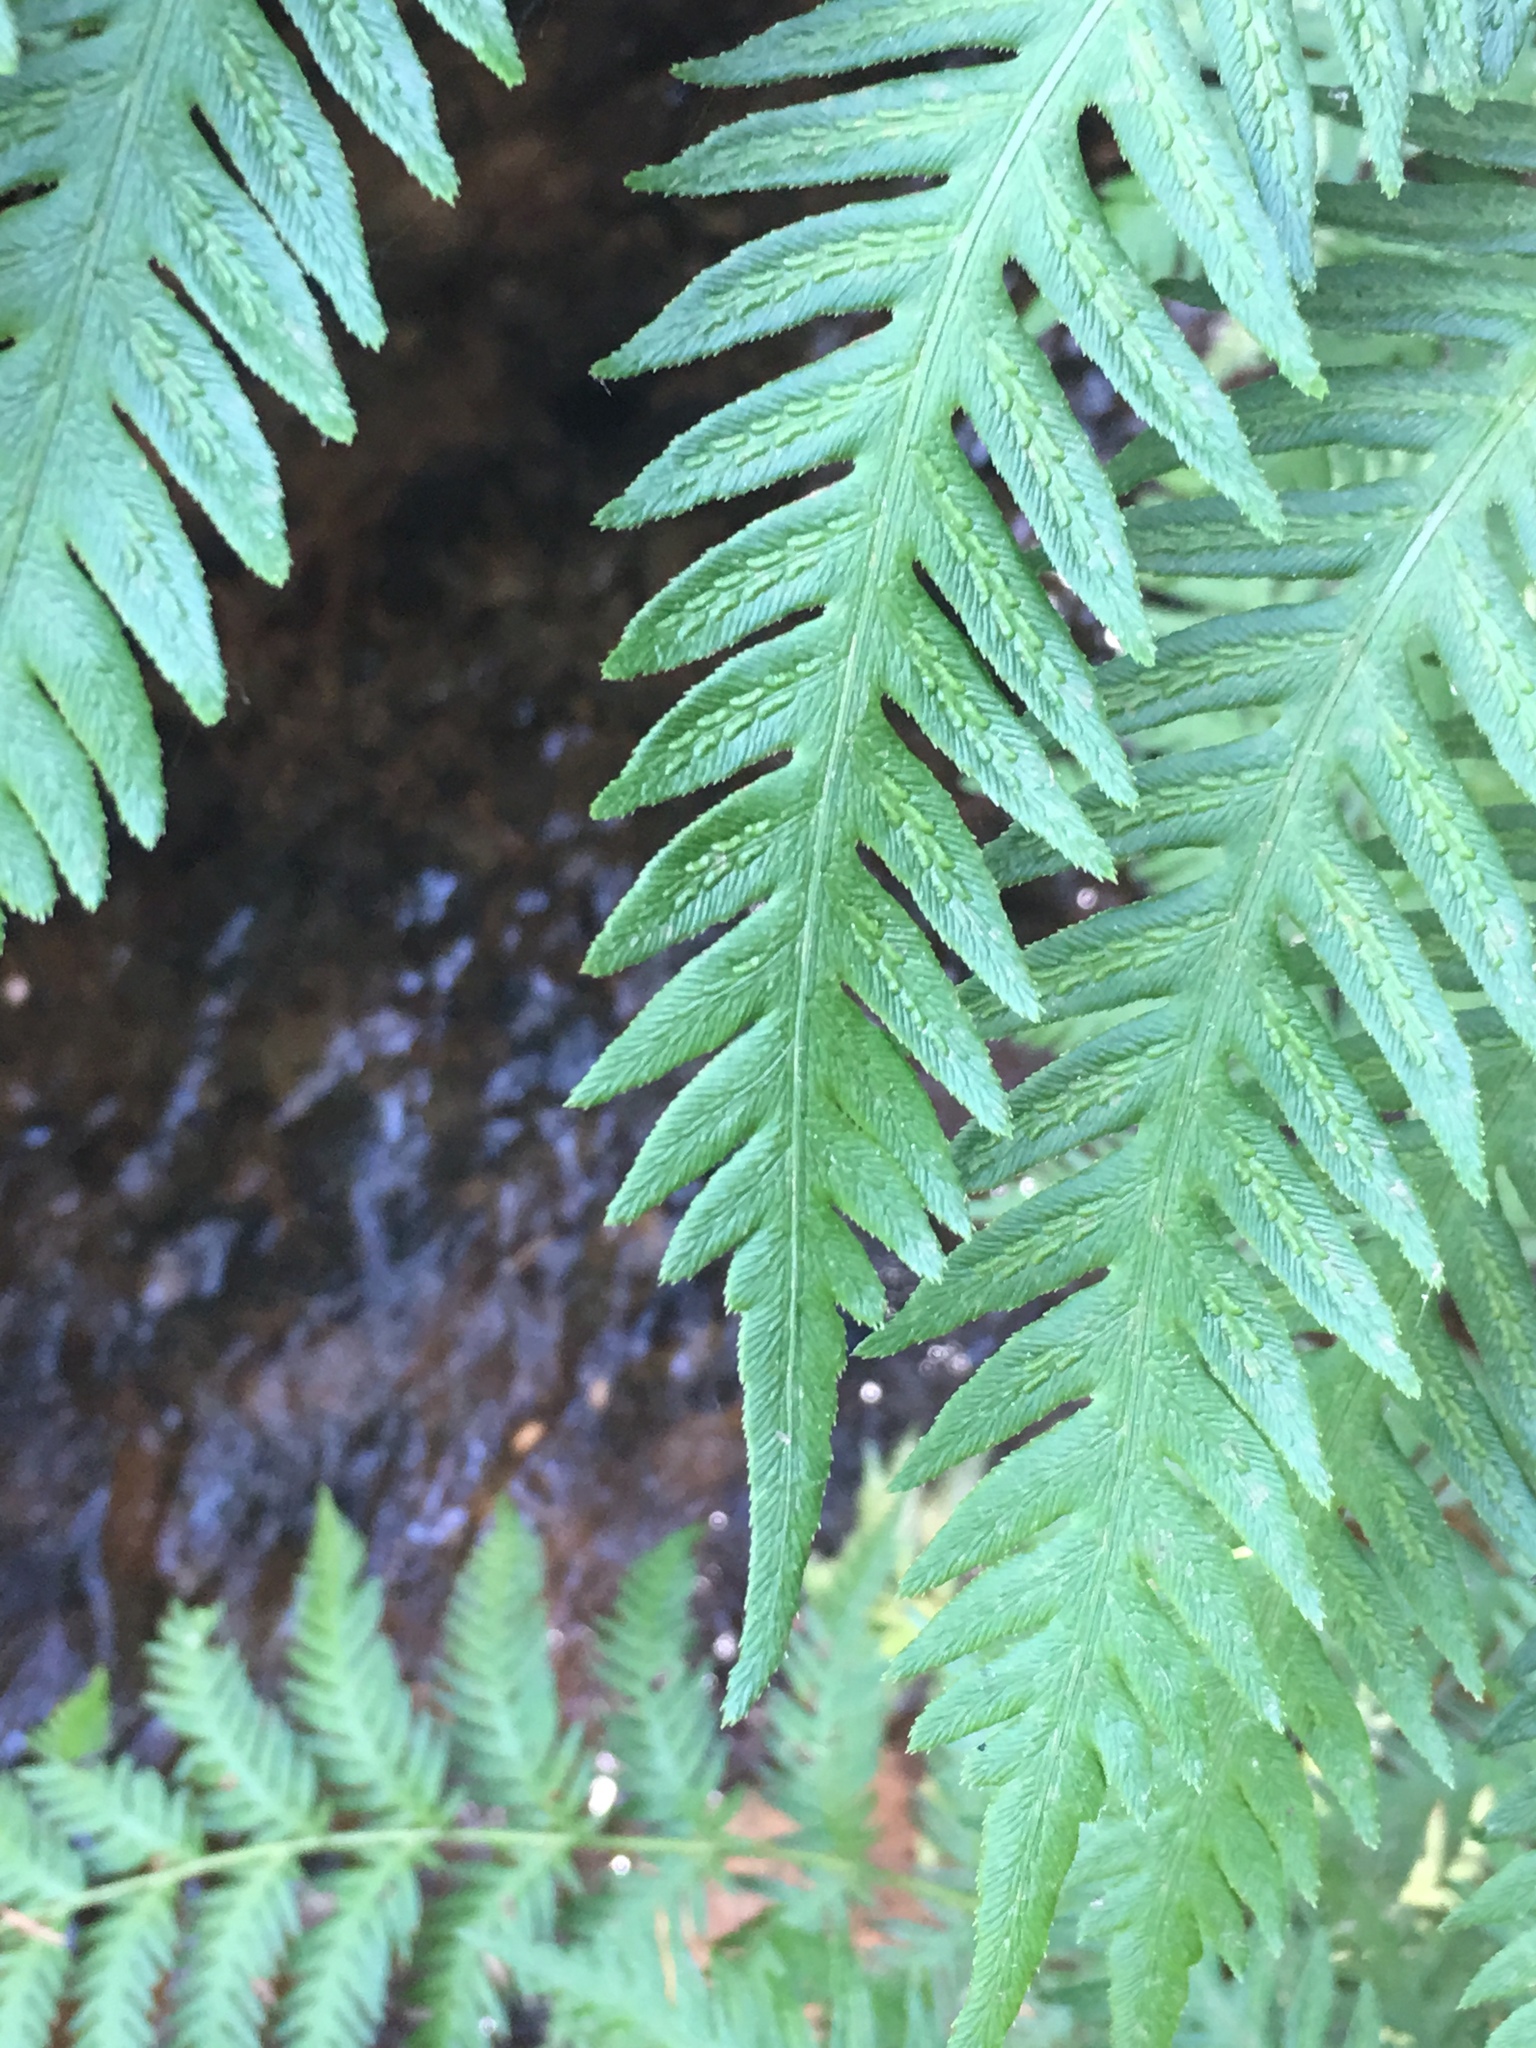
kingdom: Plantae
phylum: Tracheophyta
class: Polypodiopsida
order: Polypodiales
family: Blechnaceae
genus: Woodwardia
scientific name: Woodwardia fimbriata
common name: Giant chain fern
